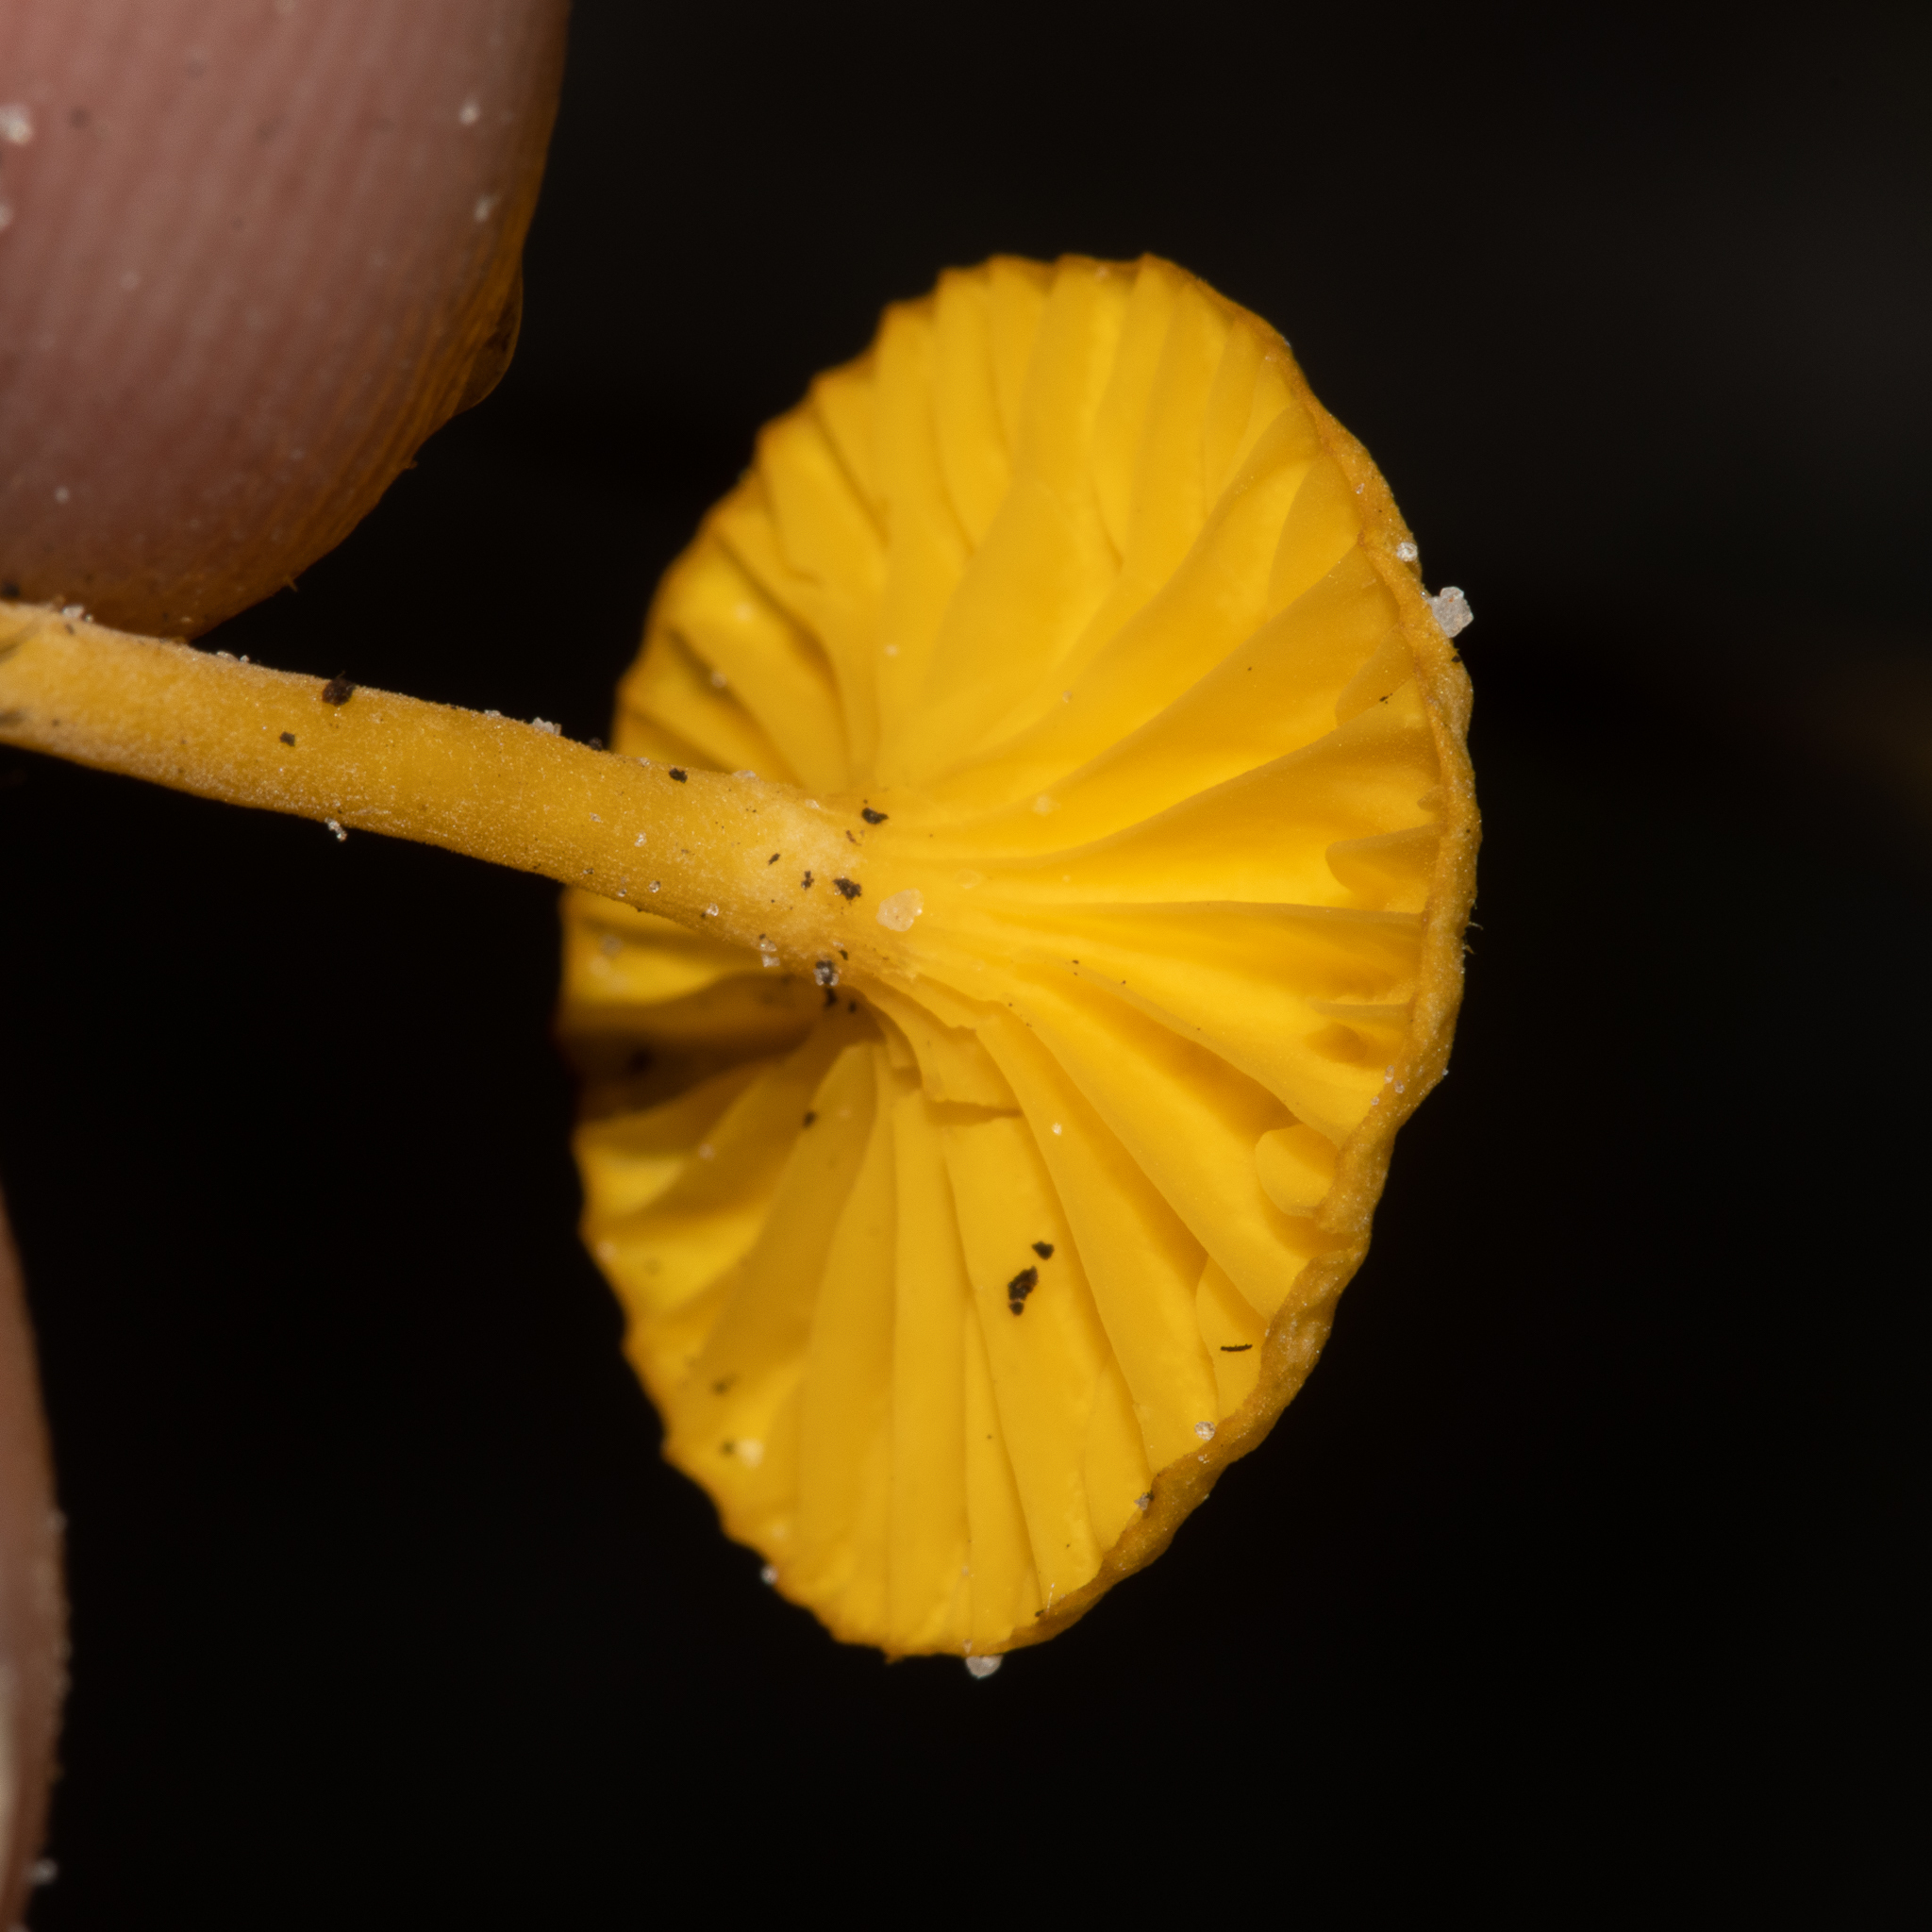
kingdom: Fungi
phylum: Basidiomycota
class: Agaricomycetes
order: Agaricales
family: Hygrophoraceae
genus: Lichenomphalia
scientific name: Lichenomphalia chromacea
